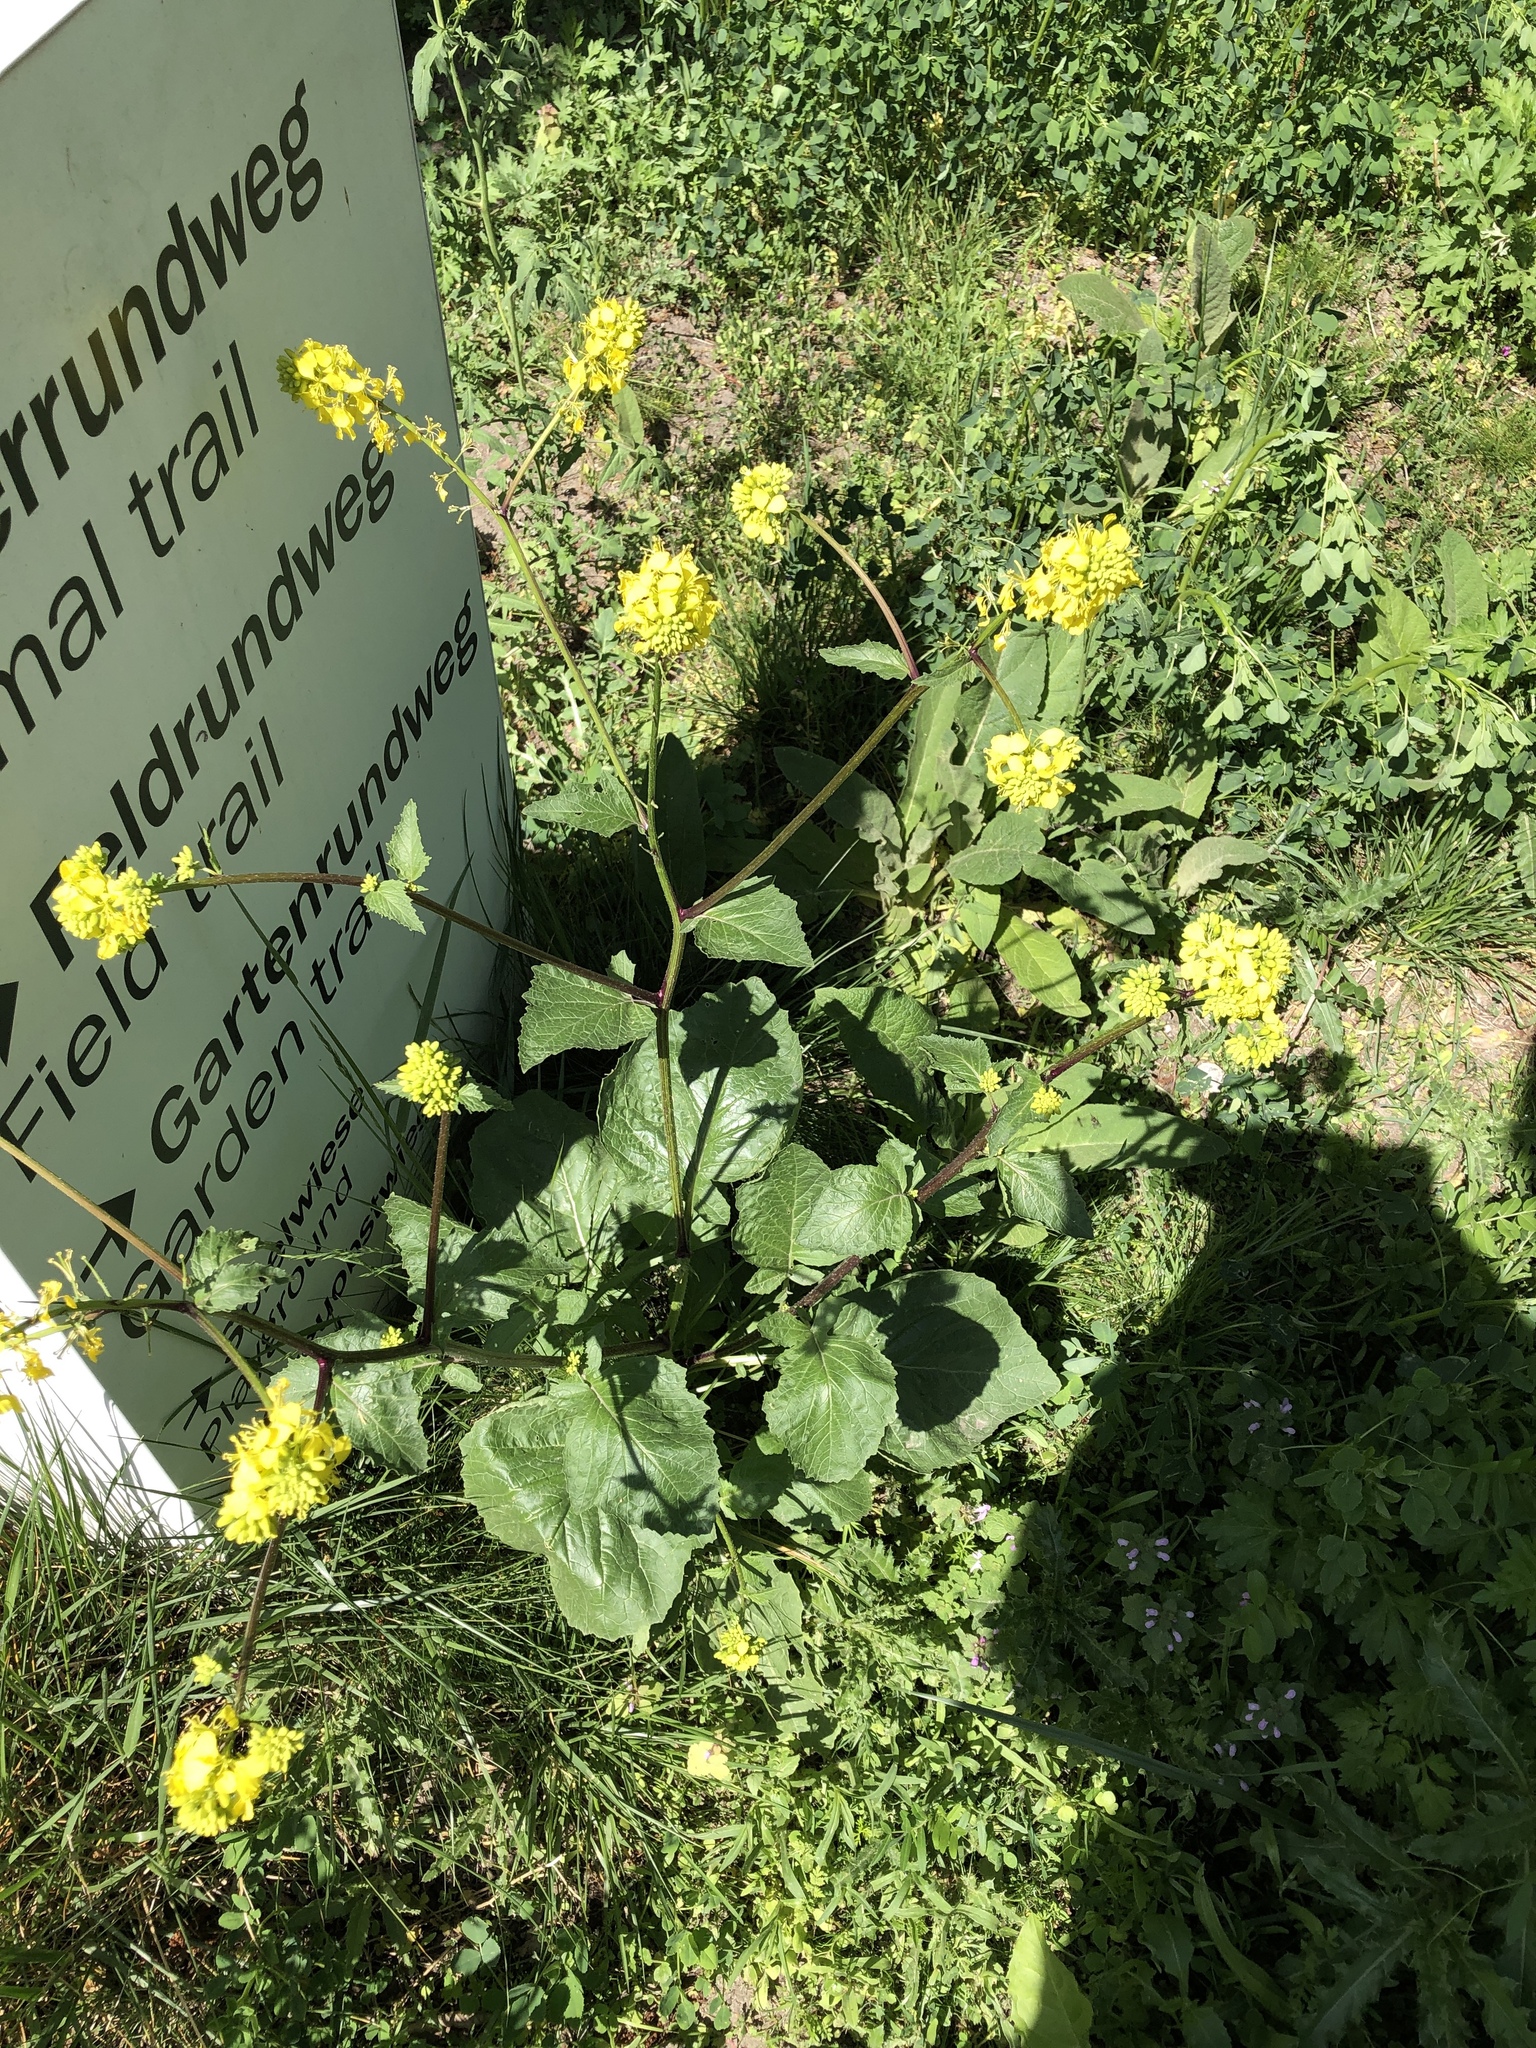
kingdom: Plantae
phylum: Tracheophyta
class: Magnoliopsida
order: Brassicales
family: Brassicaceae
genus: Sinapis
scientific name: Sinapis arvensis
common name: Charlock
